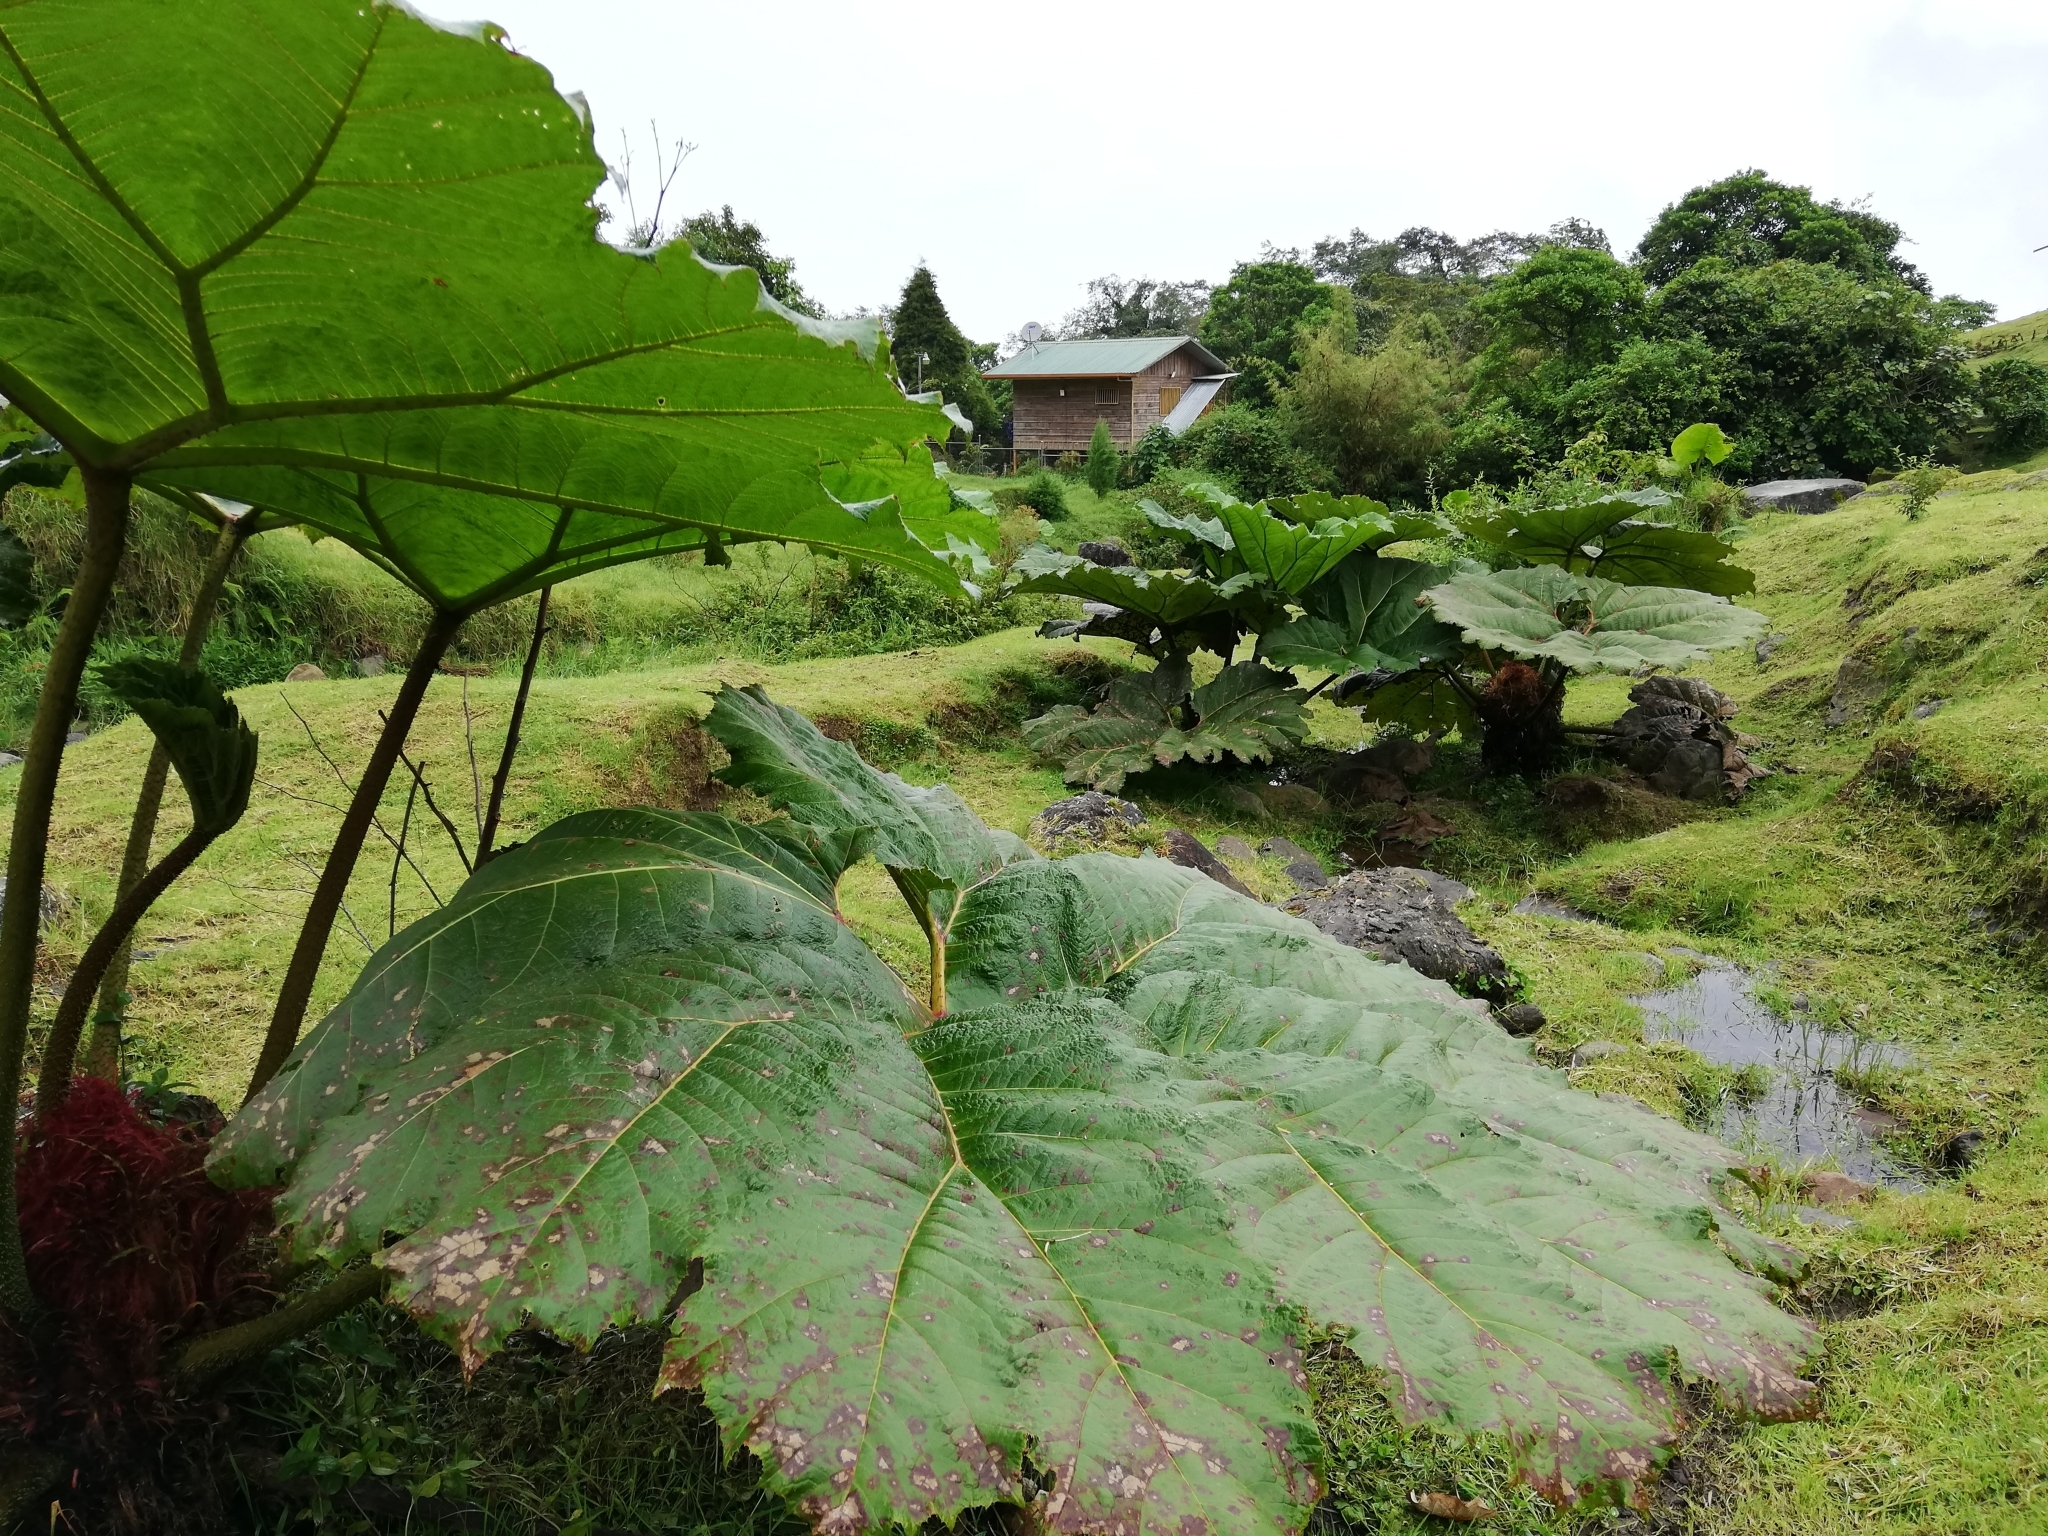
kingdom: Plantae
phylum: Tracheophyta
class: Magnoliopsida
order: Gunnerales
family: Gunneraceae
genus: Gunnera
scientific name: Gunnera insignis
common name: Poorman's umbrella
